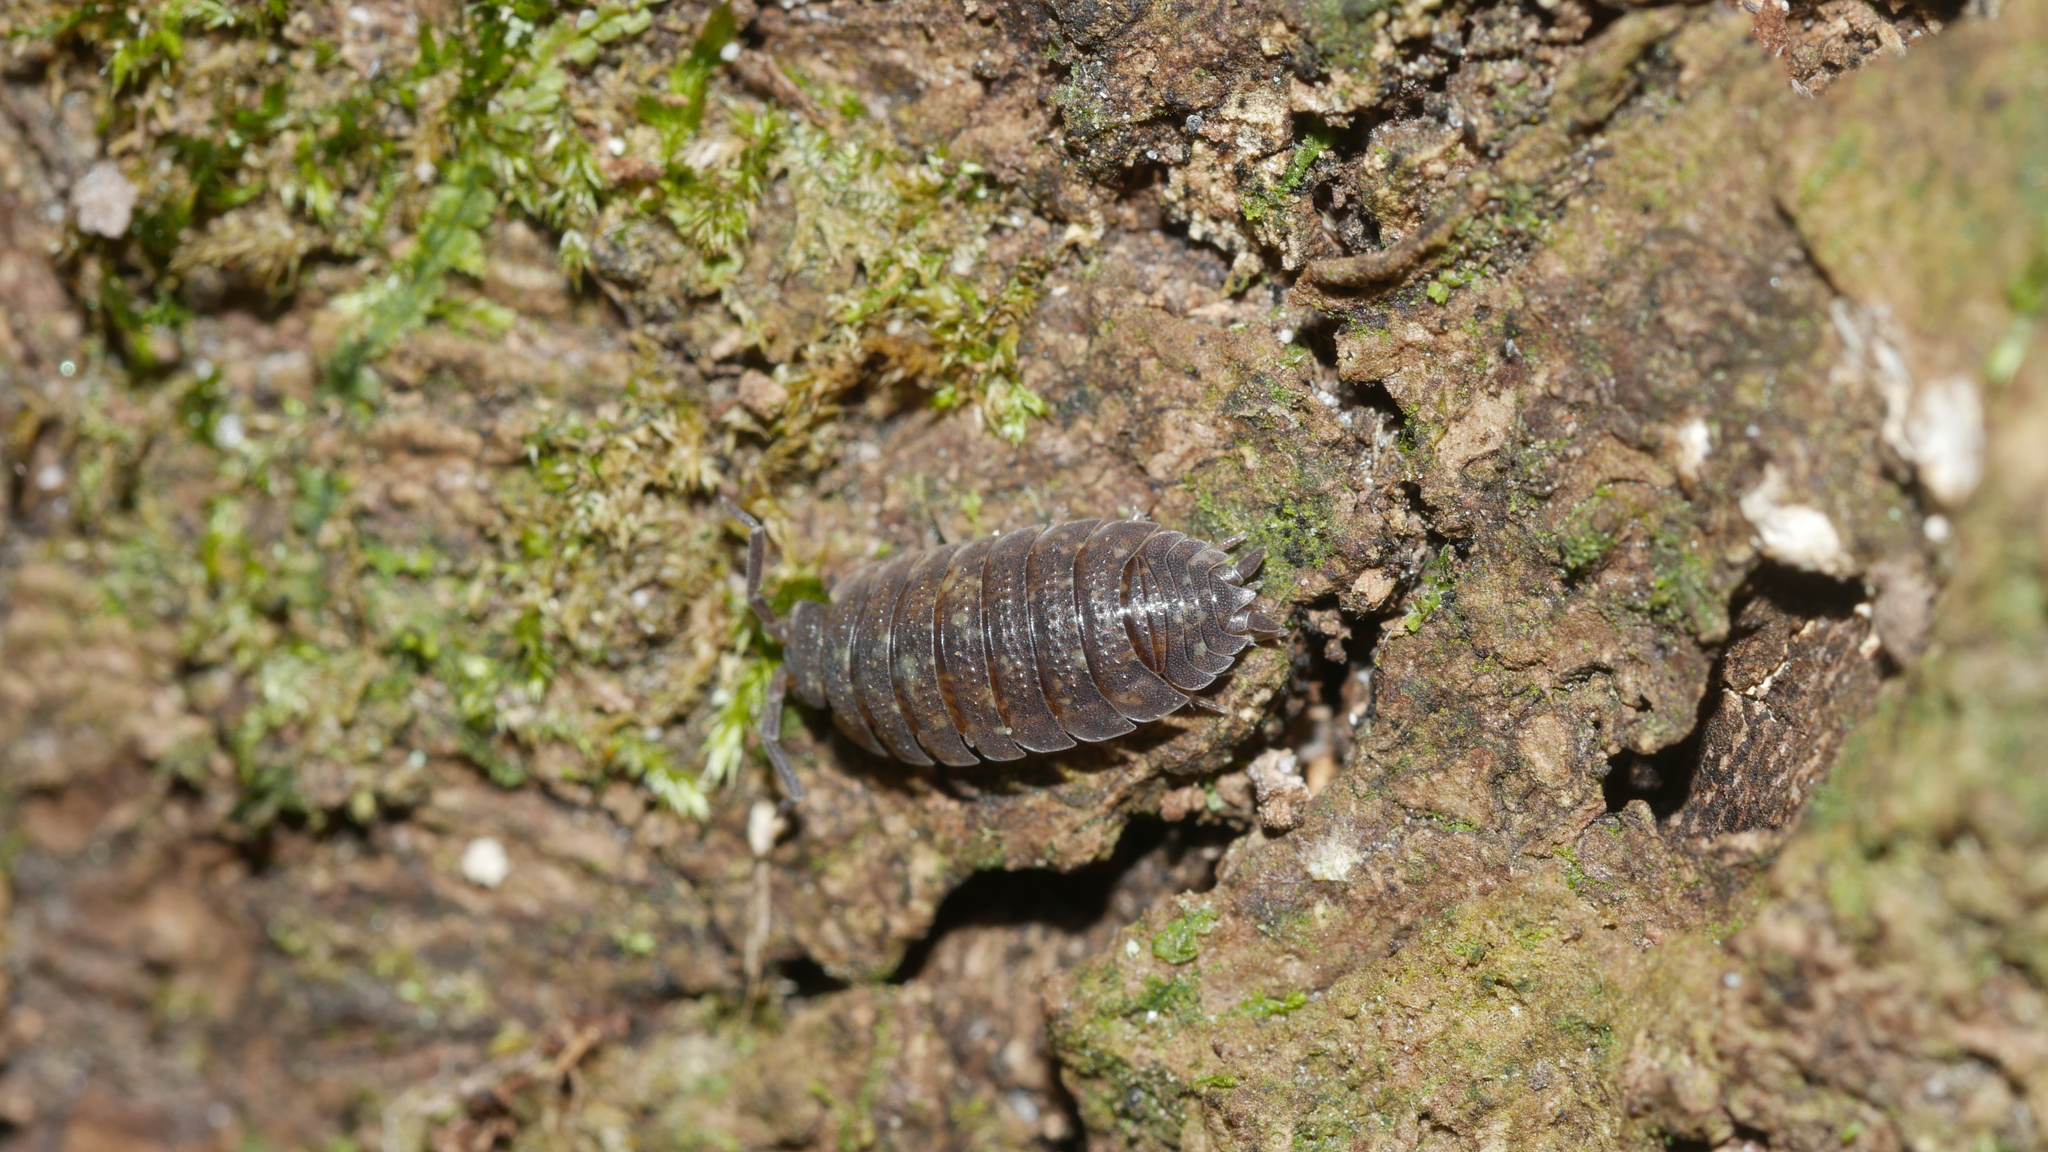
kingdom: Animalia
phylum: Arthropoda
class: Malacostraca
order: Isopoda
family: Porcellionidae
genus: Porcellio
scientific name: Porcellio scaber
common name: Common rough woodlouse
